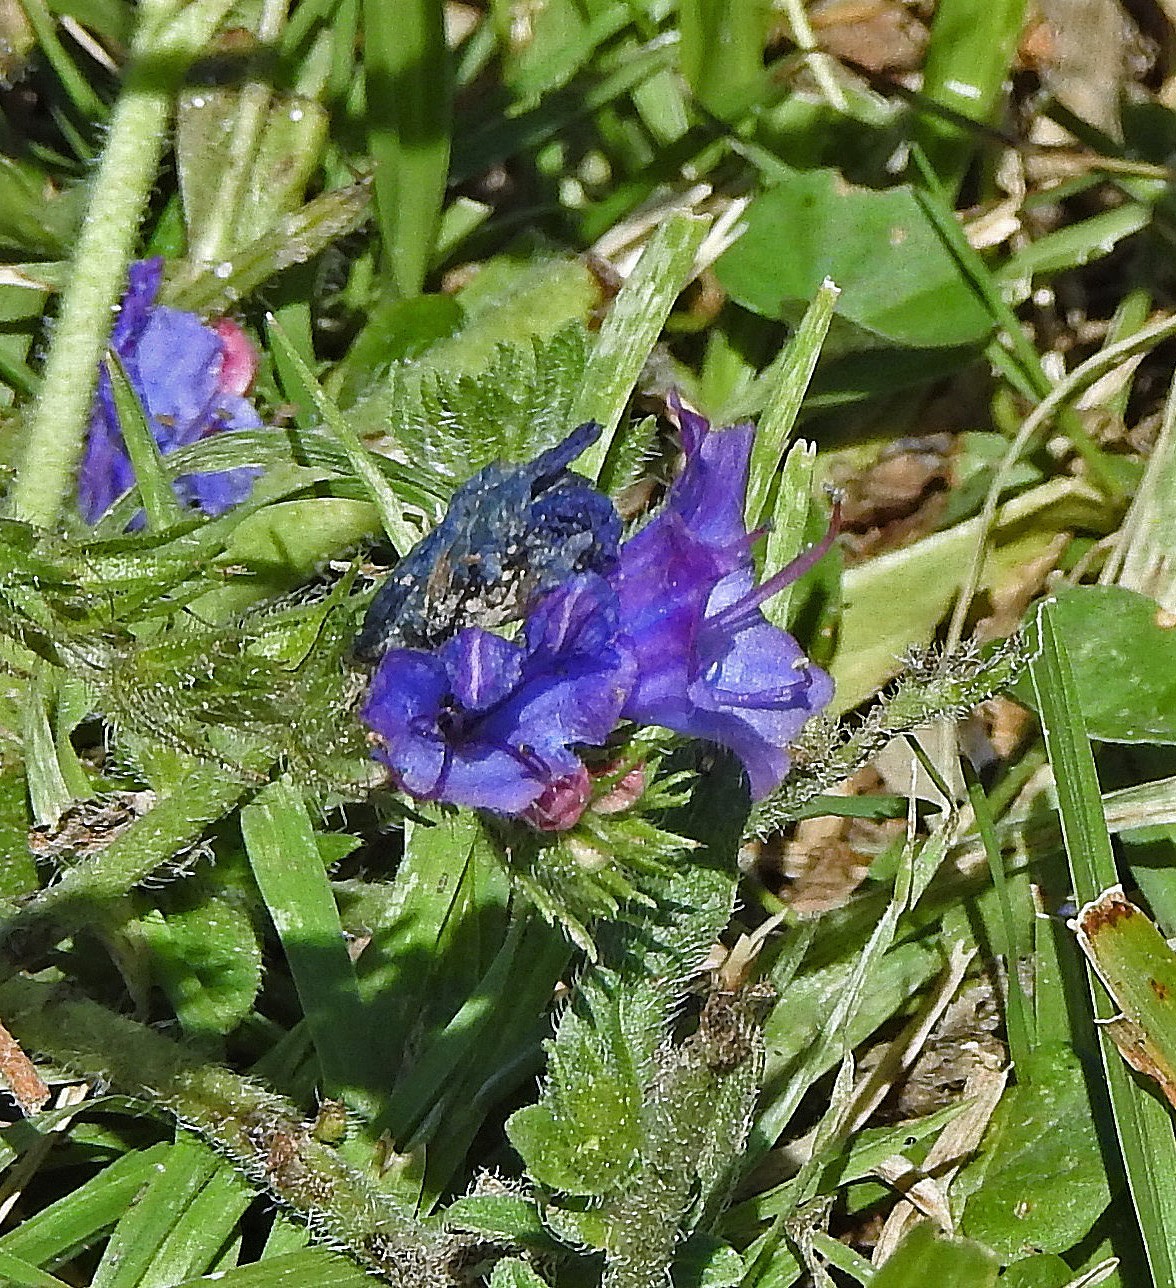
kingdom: Plantae
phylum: Tracheophyta
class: Magnoliopsida
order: Boraginales
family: Boraginaceae
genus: Echium
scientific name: Echium plantagineum
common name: Purple viper's-bugloss
